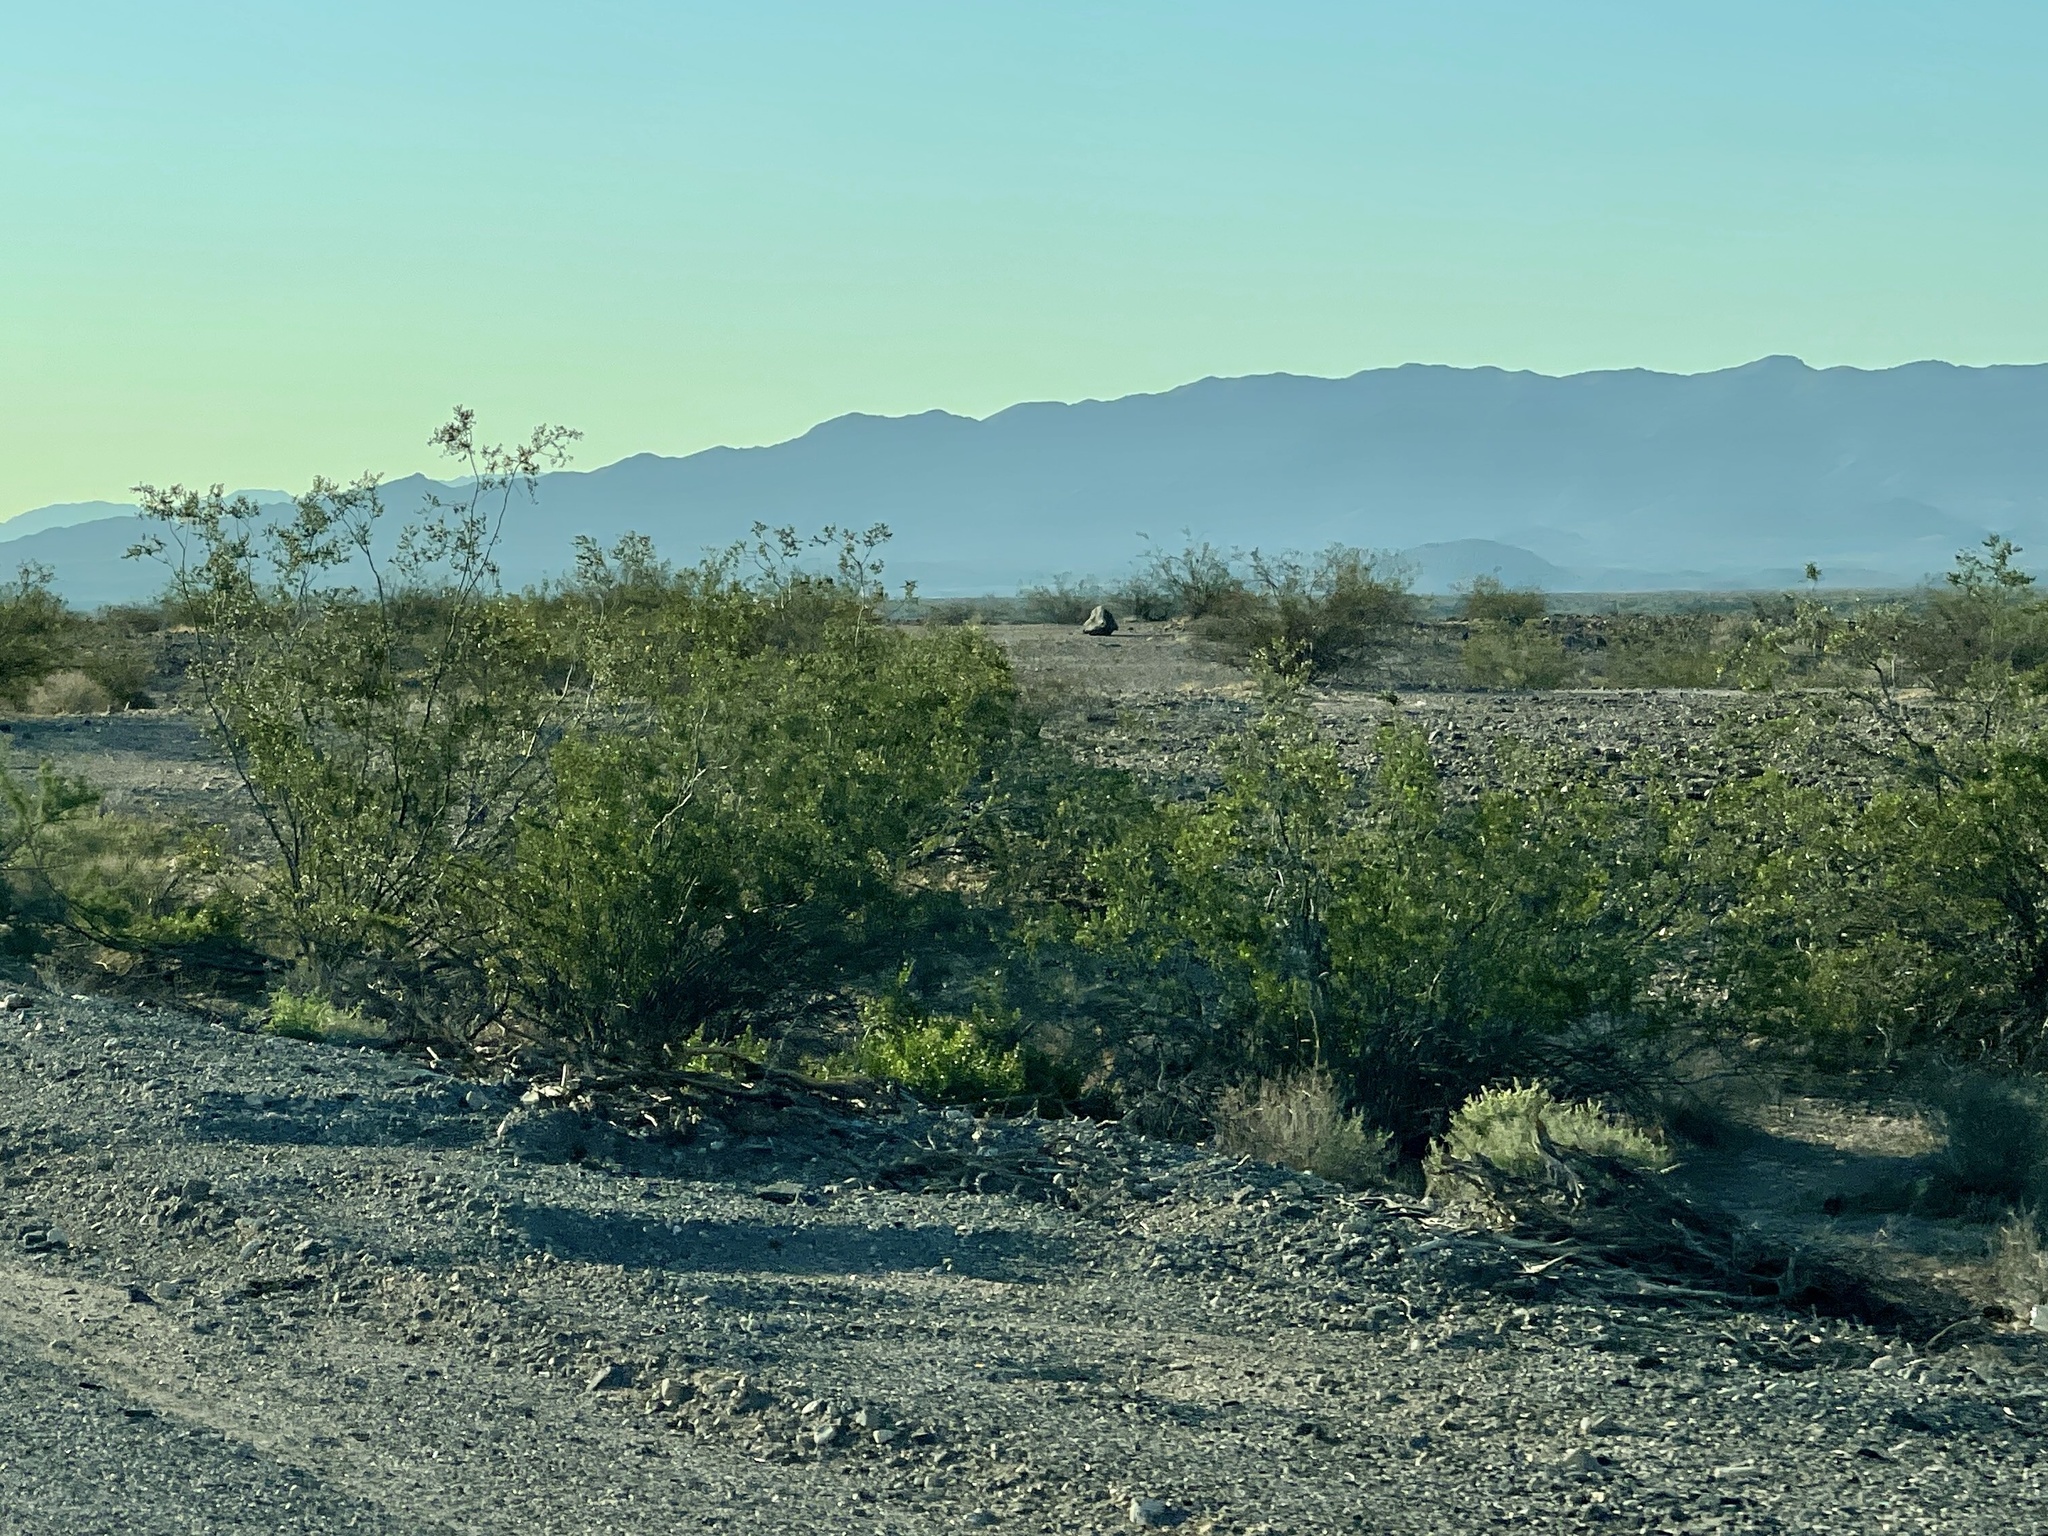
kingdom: Plantae
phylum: Tracheophyta
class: Magnoliopsida
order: Zygophyllales
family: Zygophyllaceae
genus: Larrea
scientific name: Larrea tridentata
